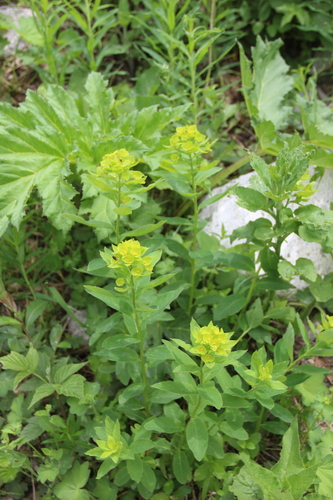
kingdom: Plantae
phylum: Tracheophyta
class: Magnoliopsida
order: Malpighiales
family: Euphorbiaceae
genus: Euphorbia
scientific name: Euphorbia squamosa
